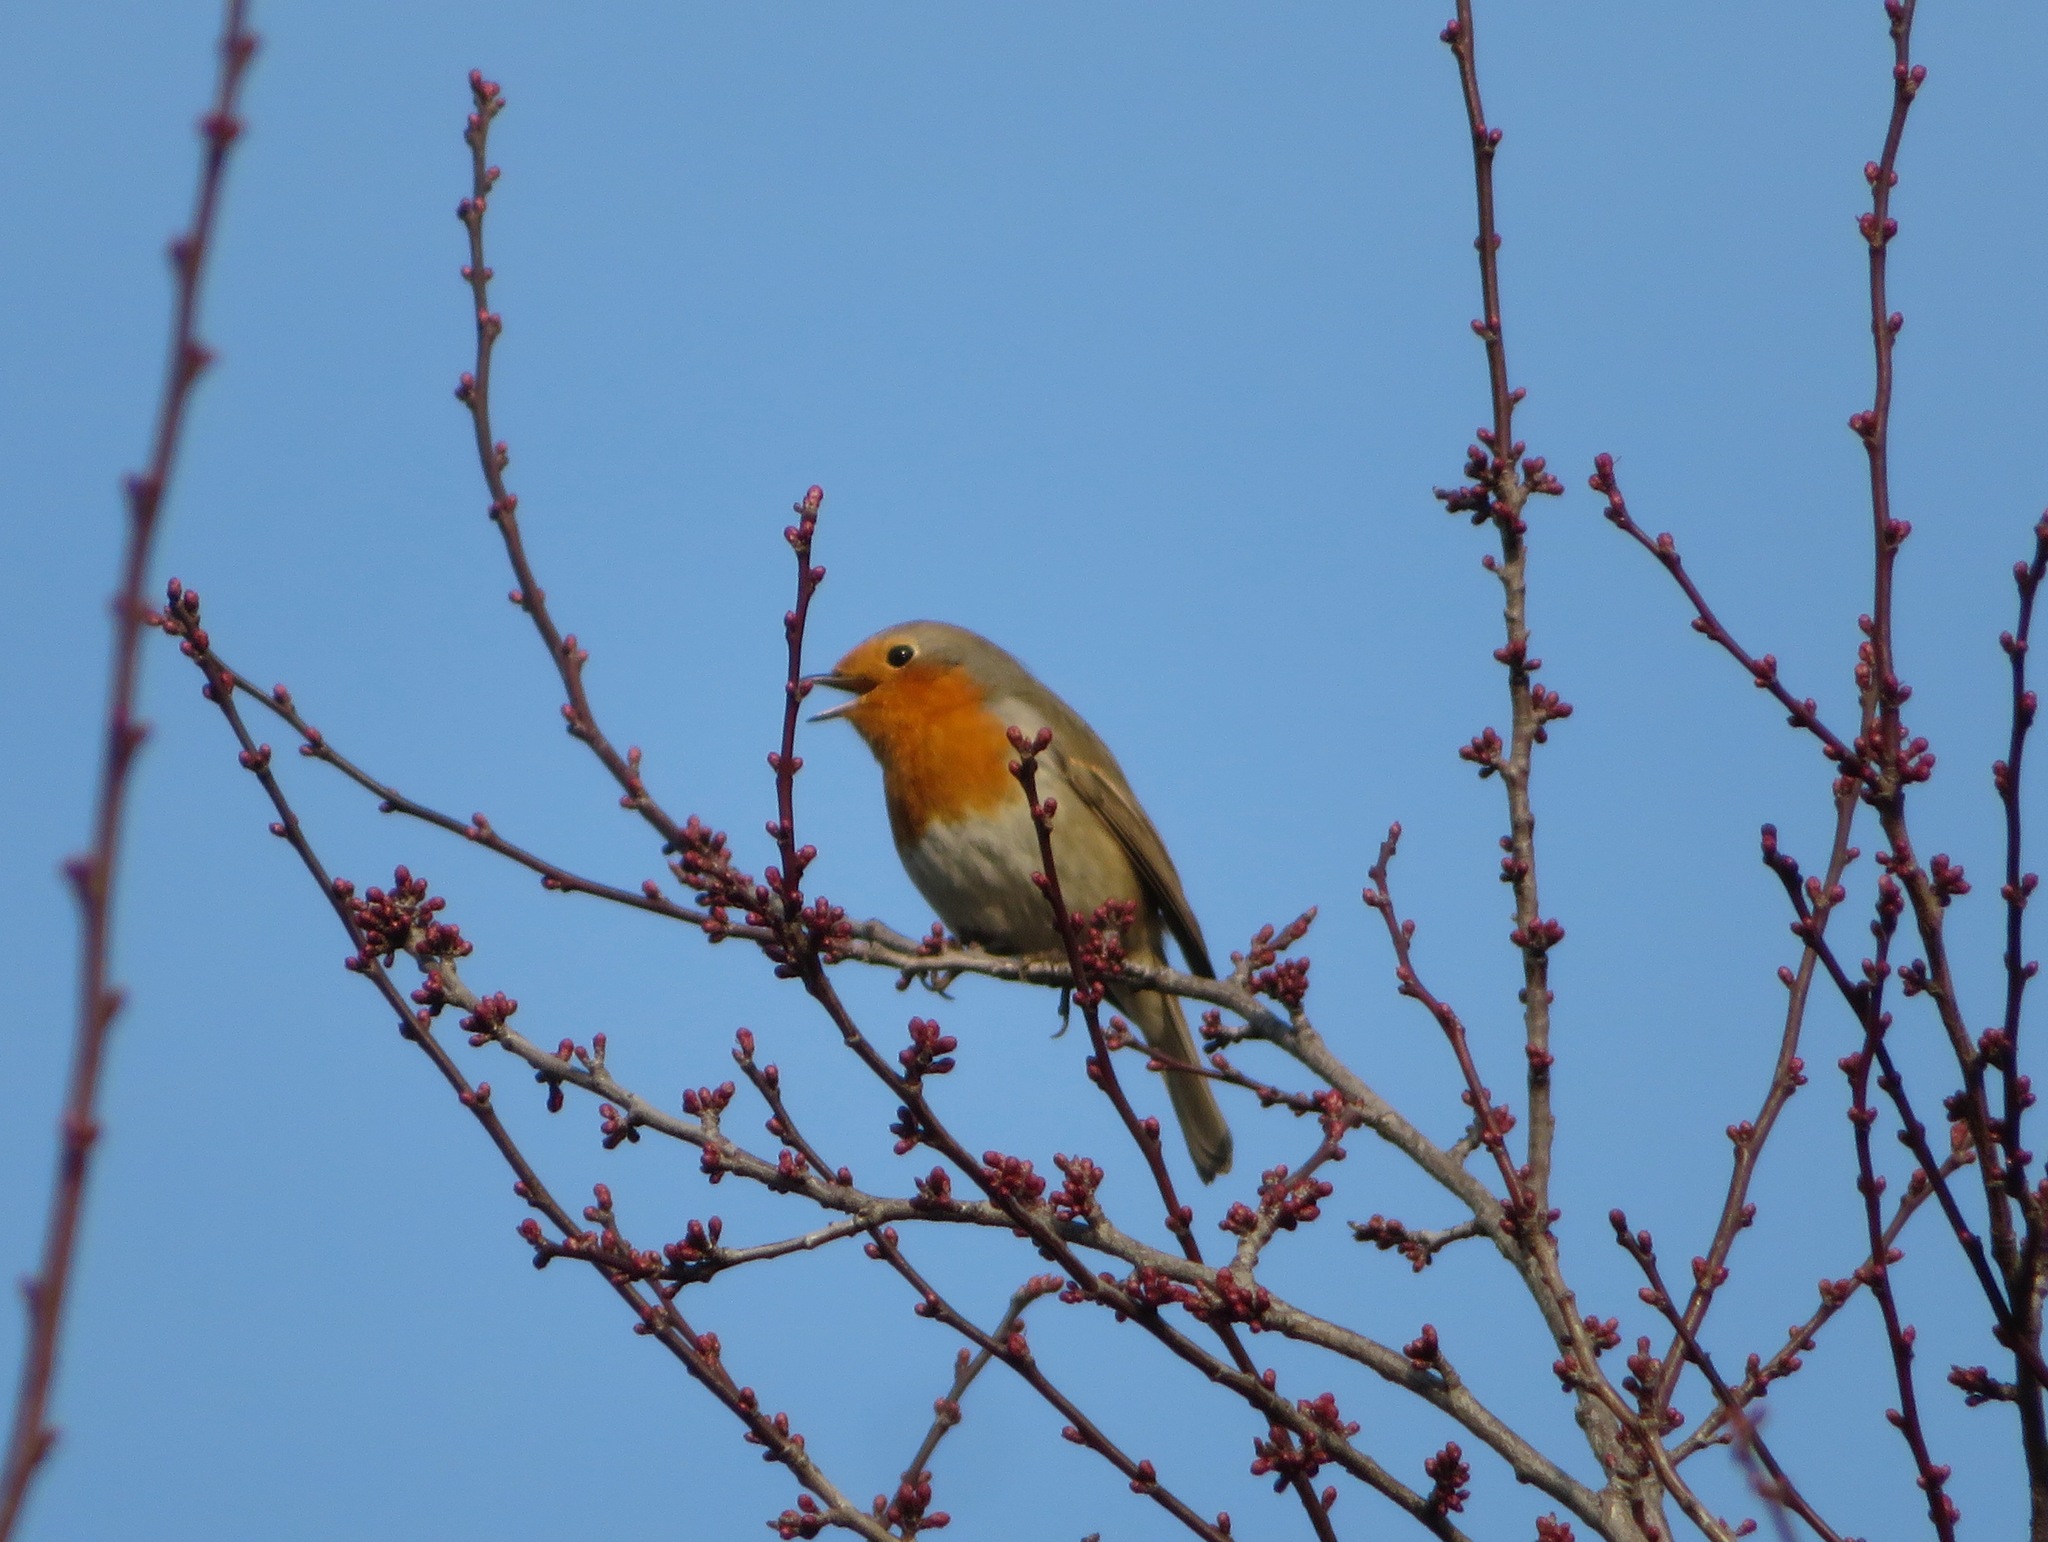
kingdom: Animalia
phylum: Chordata
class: Aves
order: Passeriformes
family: Muscicapidae
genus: Erithacus
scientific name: Erithacus rubecula
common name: European robin
